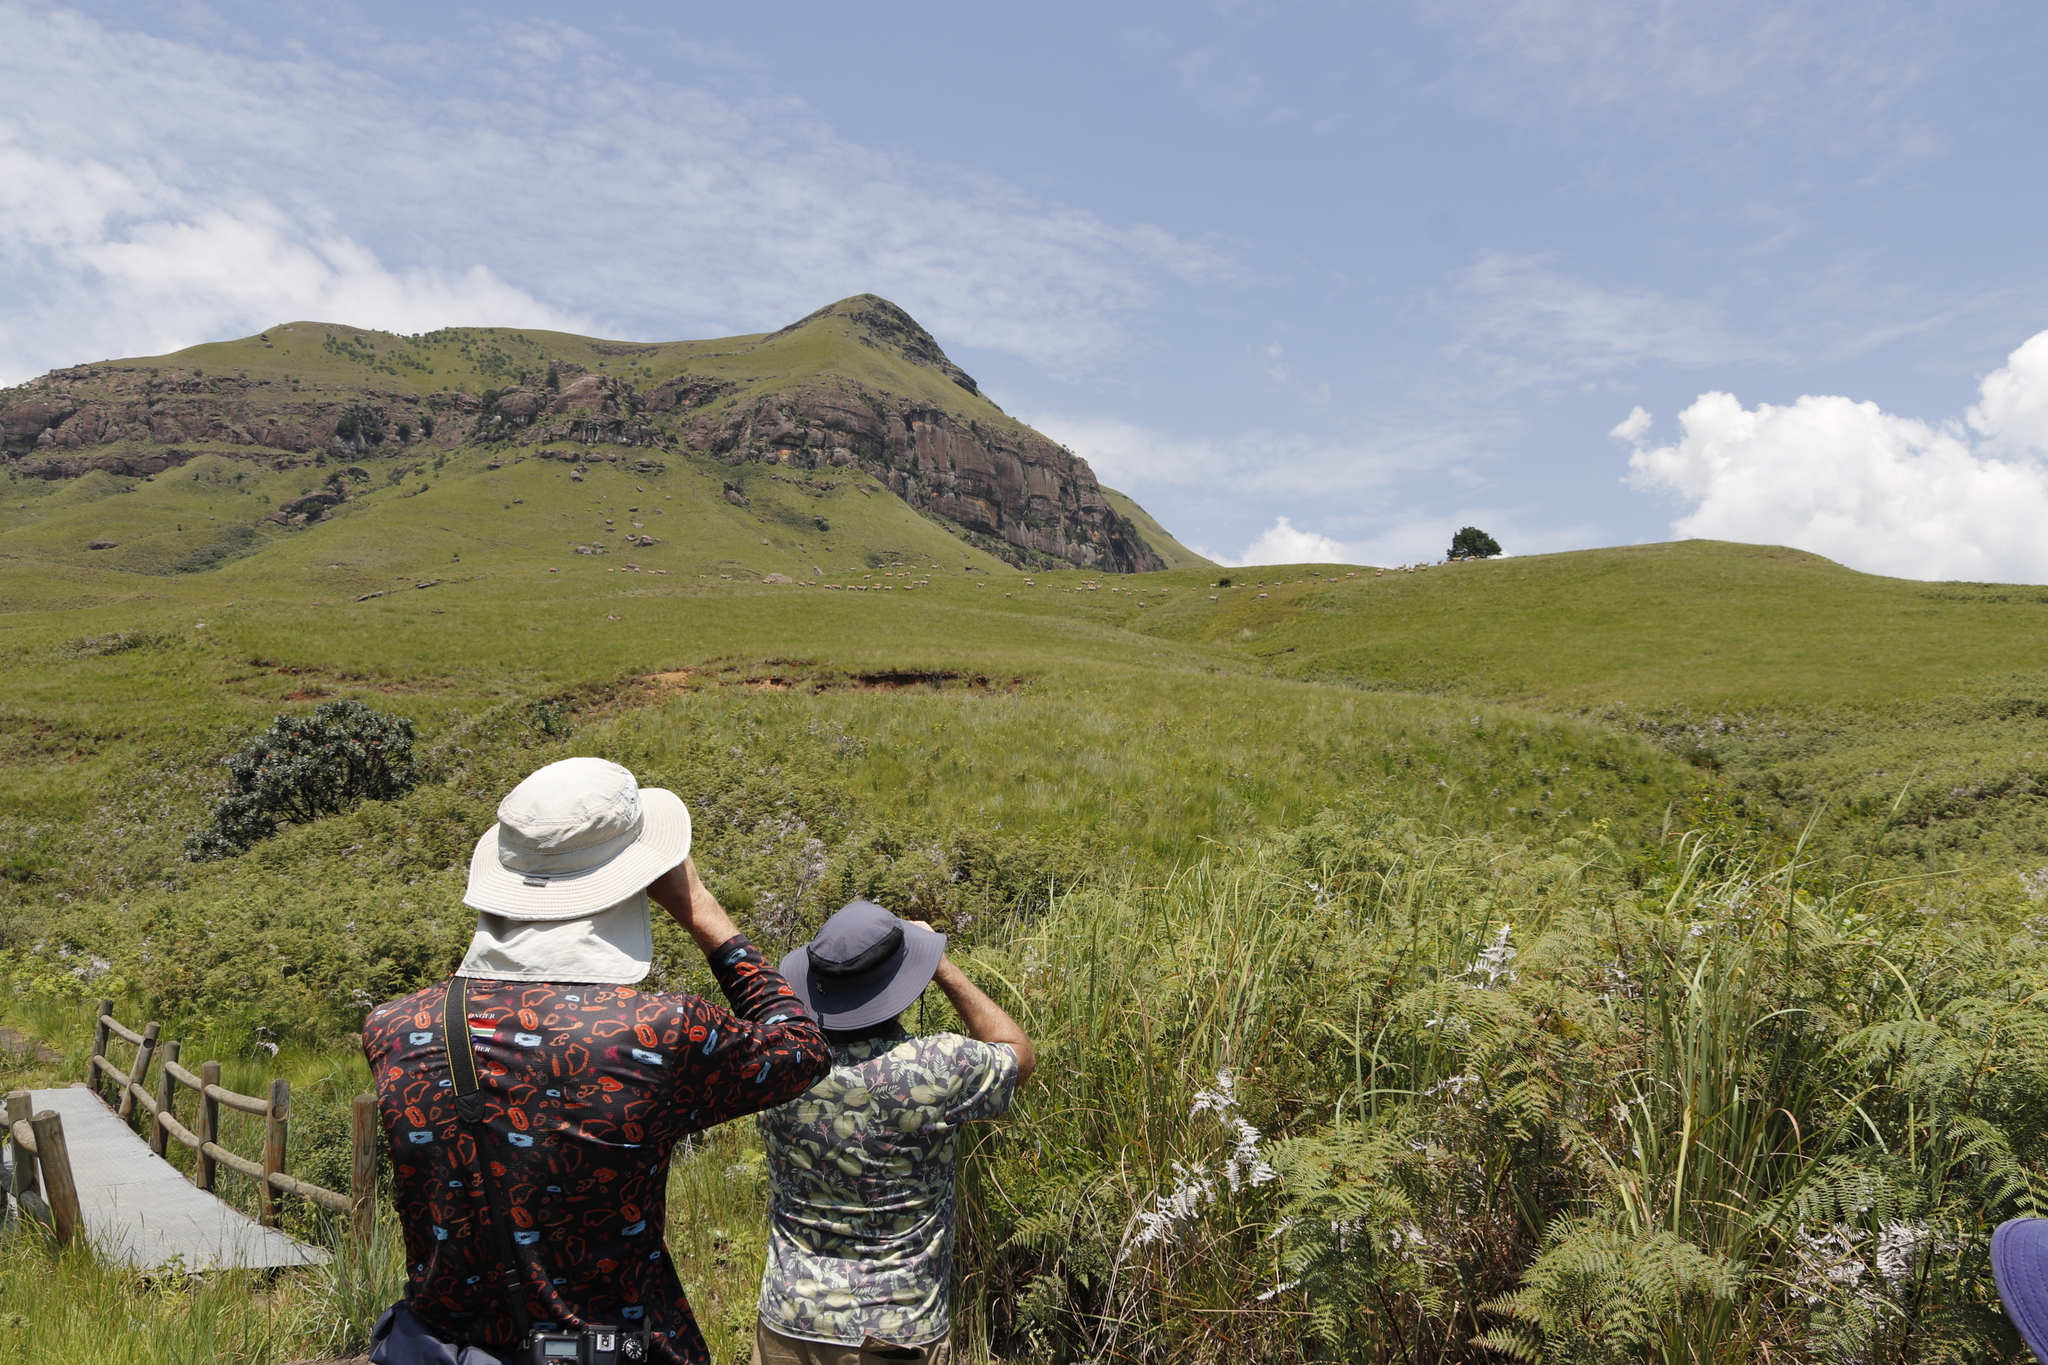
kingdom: Animalia
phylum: Chordata
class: Mammalia
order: Artiodactyla
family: Bovidae
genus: Taurotragus
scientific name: Taurotragus oryx
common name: Common eland
